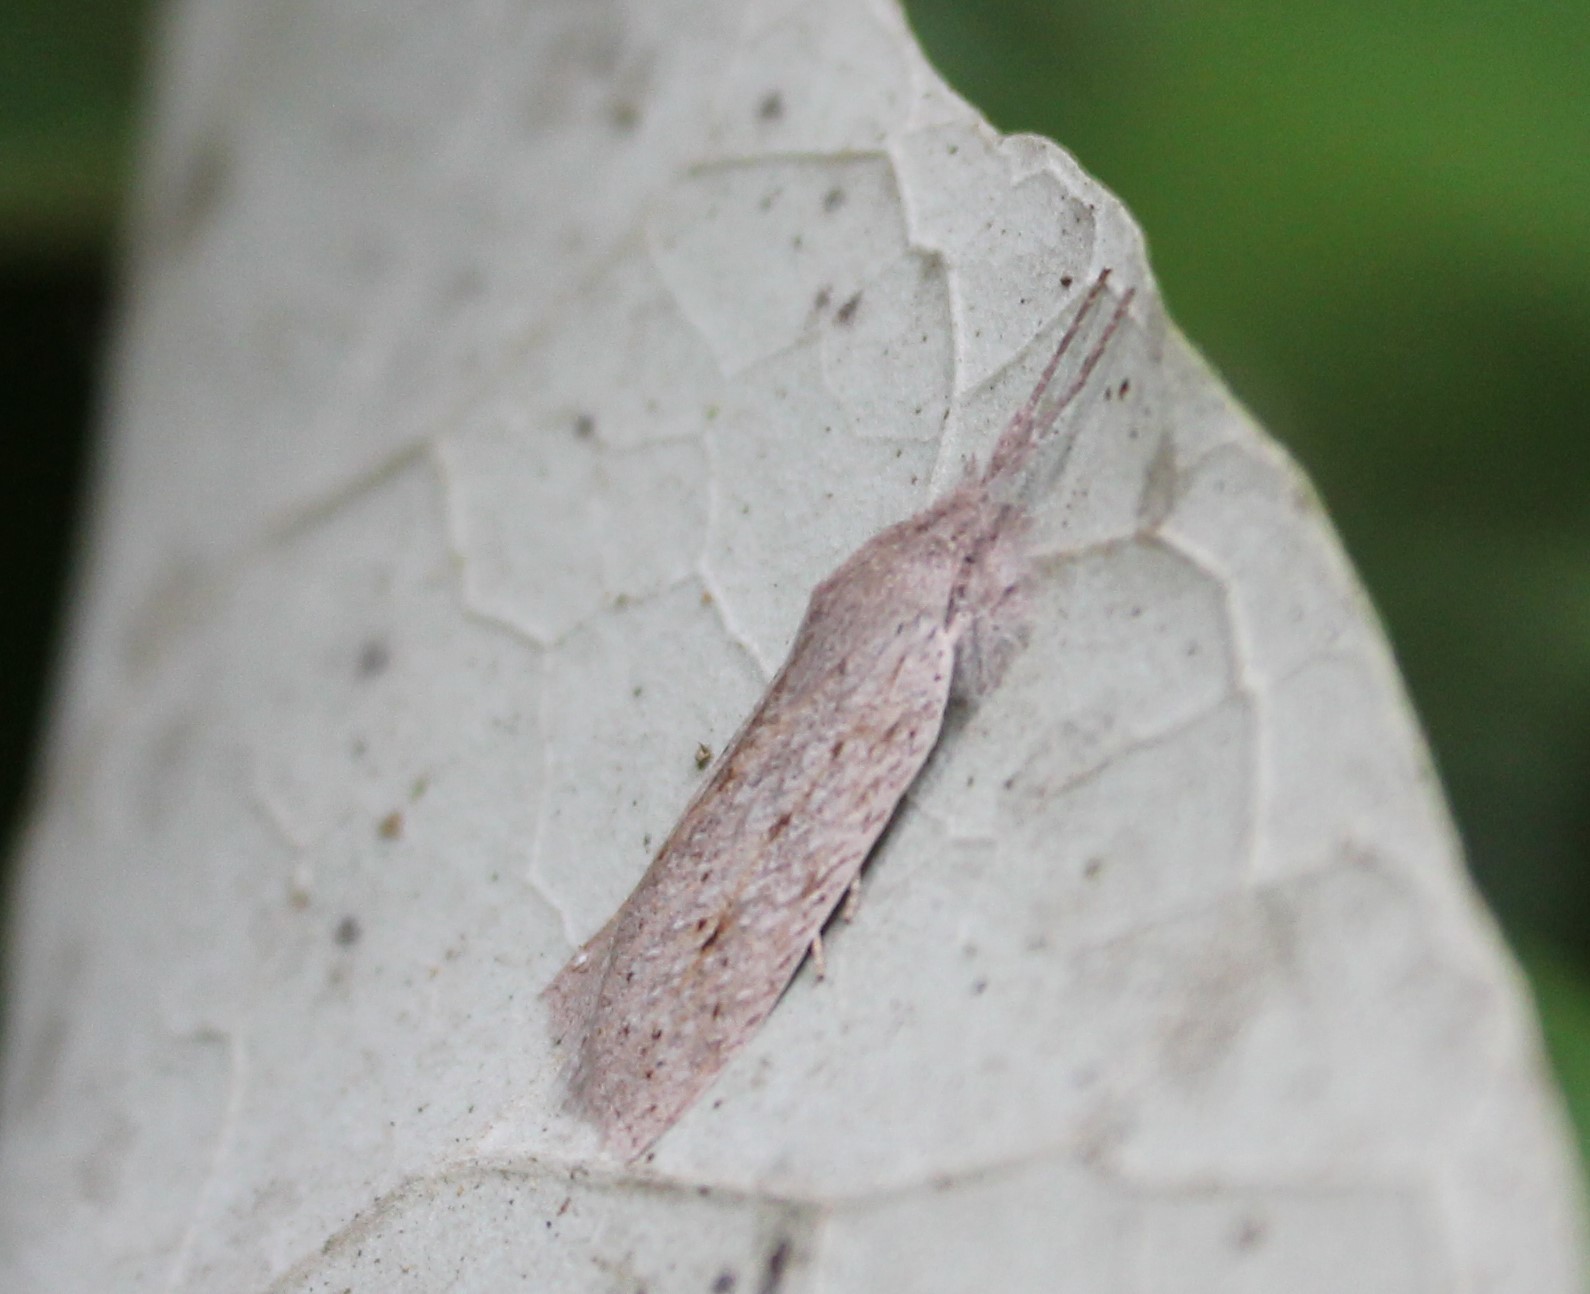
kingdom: Animalia
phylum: Arthropoda
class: Insecta
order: Lepidoptera
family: Geometridae
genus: Declana
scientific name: Declana leptomera
